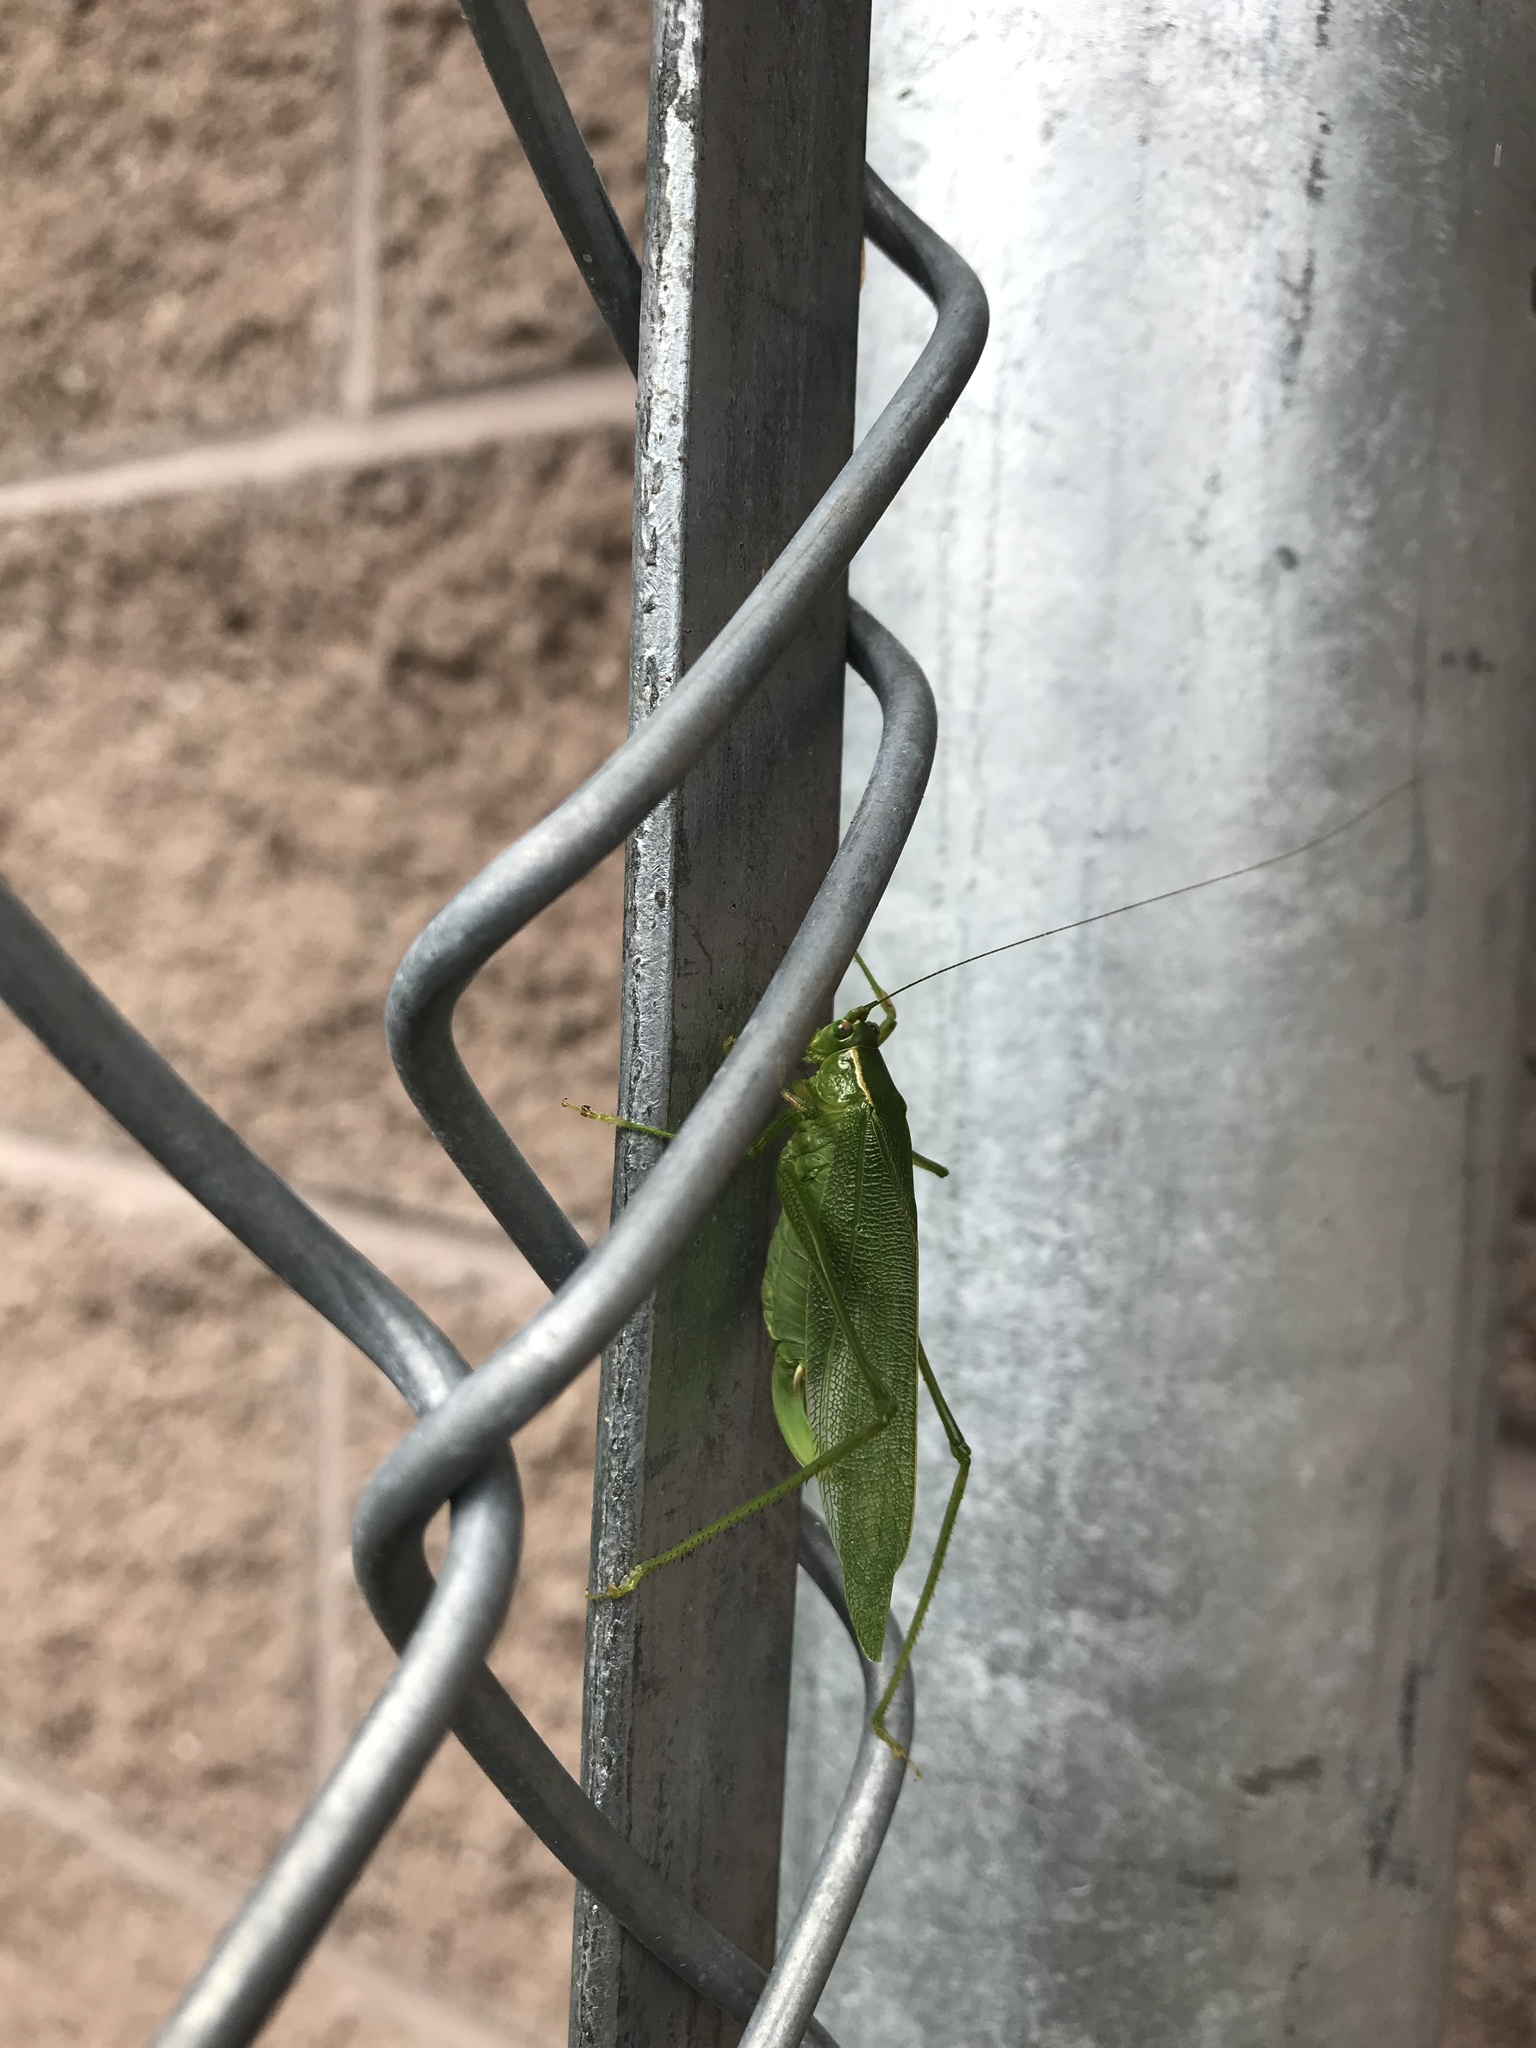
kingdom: Animalia
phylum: Arthropoda
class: Insecta
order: Orthoptera
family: Tettigoniidae
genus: Scudderia
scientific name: Scudderia septentrionalis
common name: Northern bush-katydid
